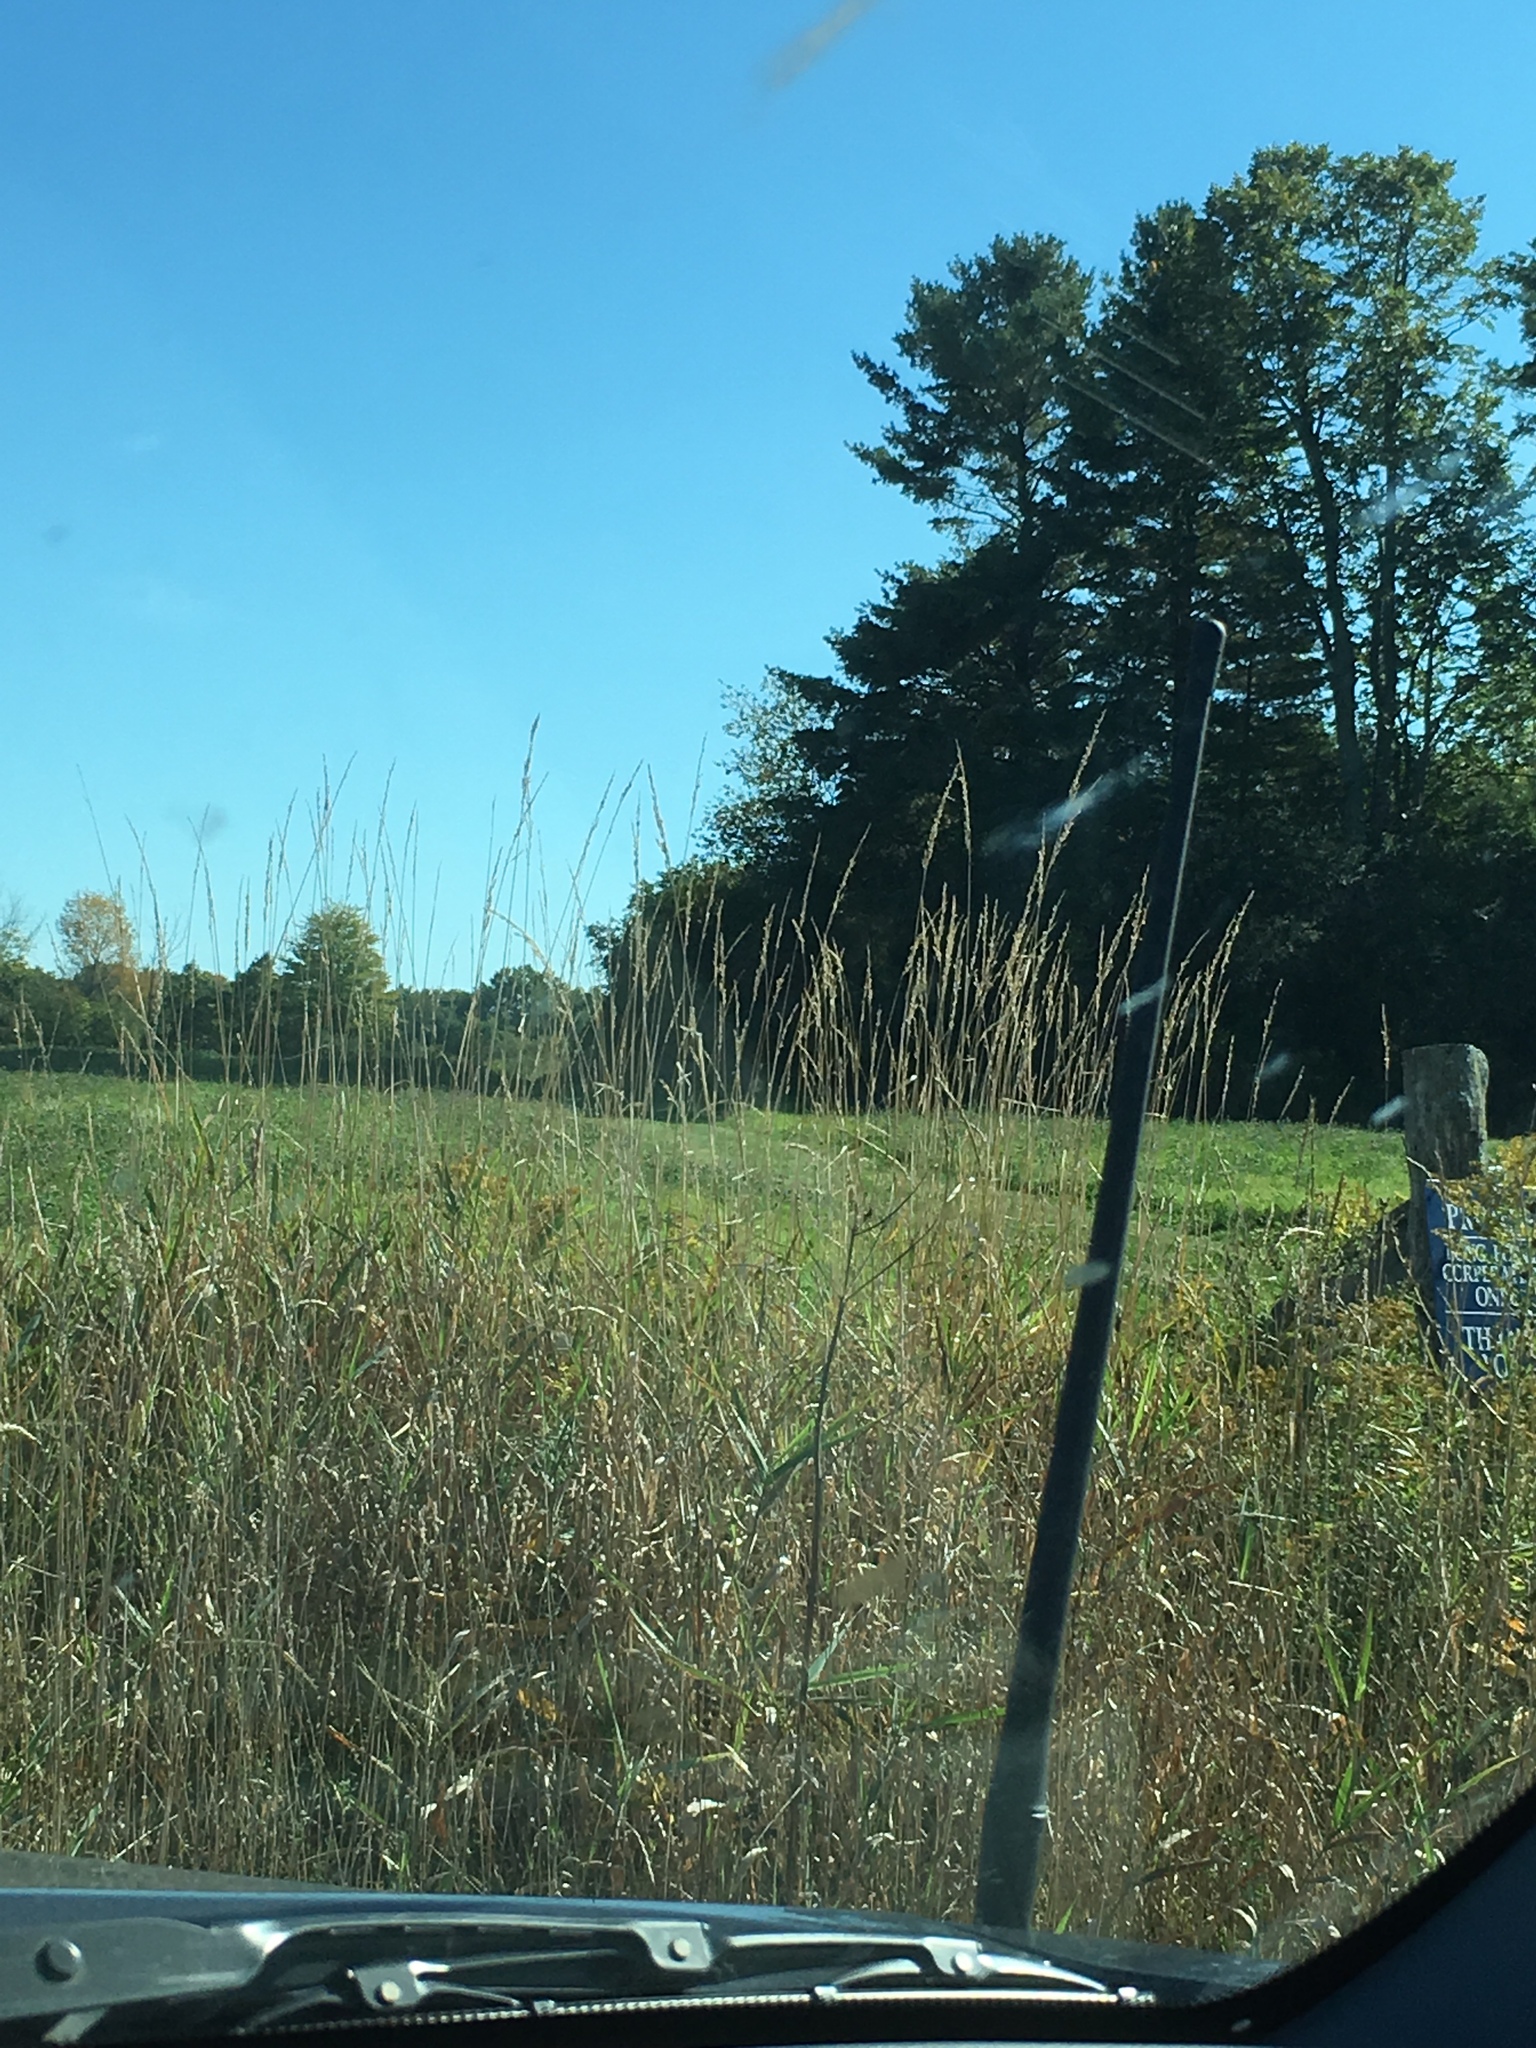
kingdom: Plantae
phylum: Tracheophyta
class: Liliopsida
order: Poales
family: Poaceae
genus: Phalaris
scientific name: Phalaris arundinacea
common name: Reed canary-grass
